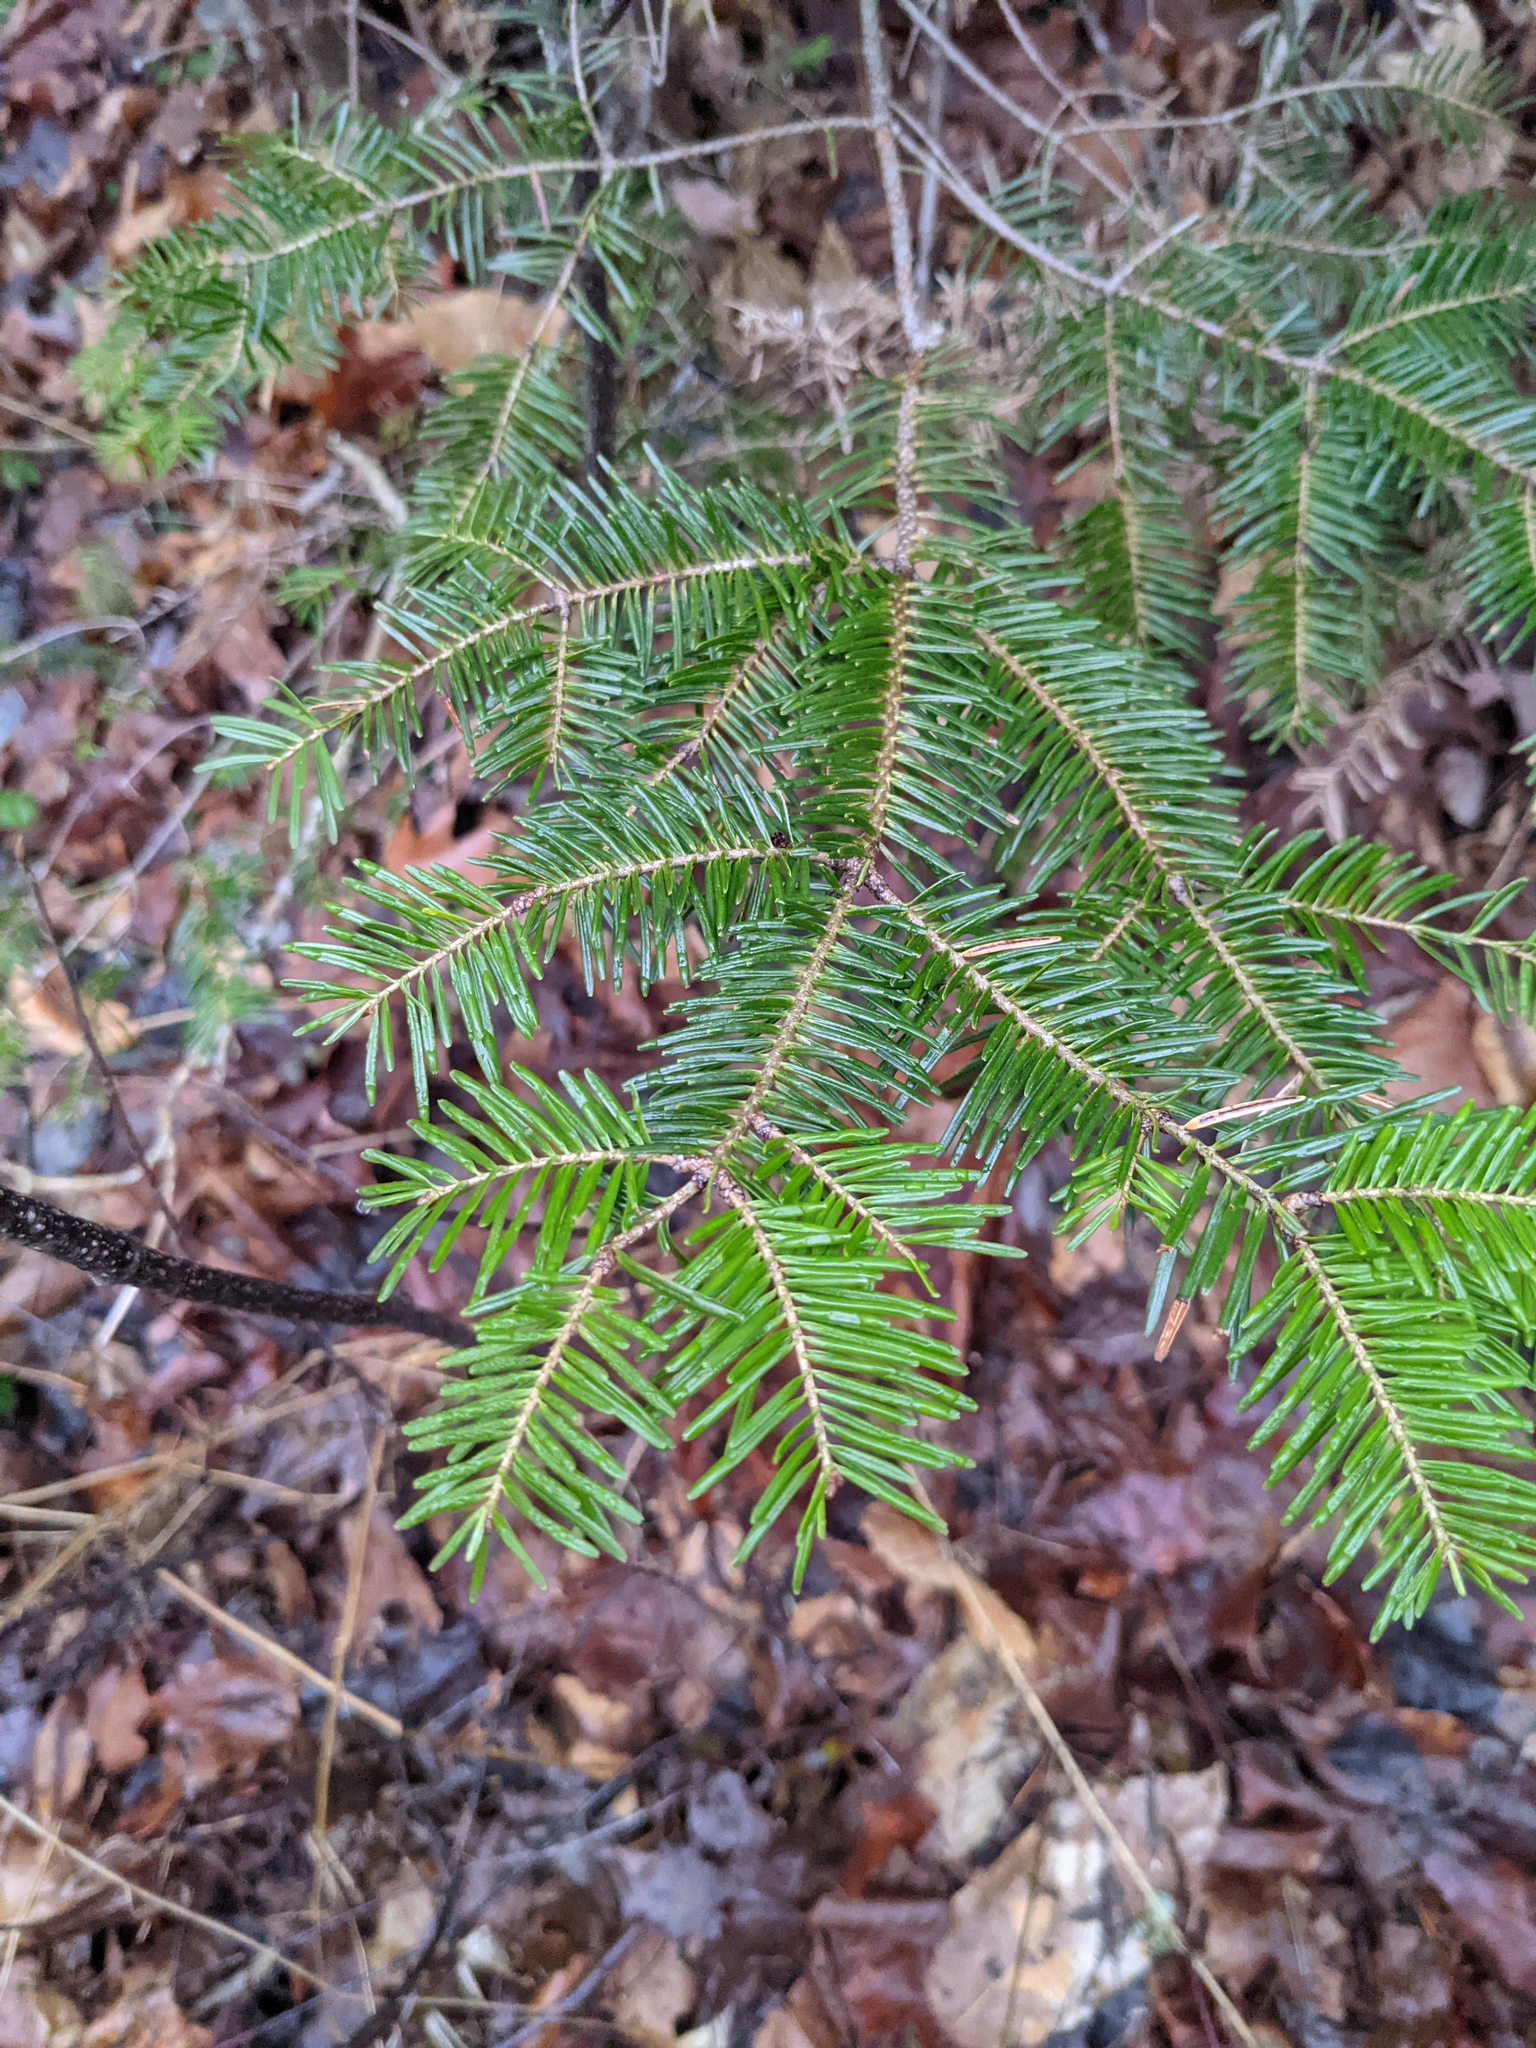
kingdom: Plantae
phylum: Tracheophyta
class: Pinopsida
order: Pinales
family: Pinaceae
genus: Abies
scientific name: Abies balsamea
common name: Balsam fir
